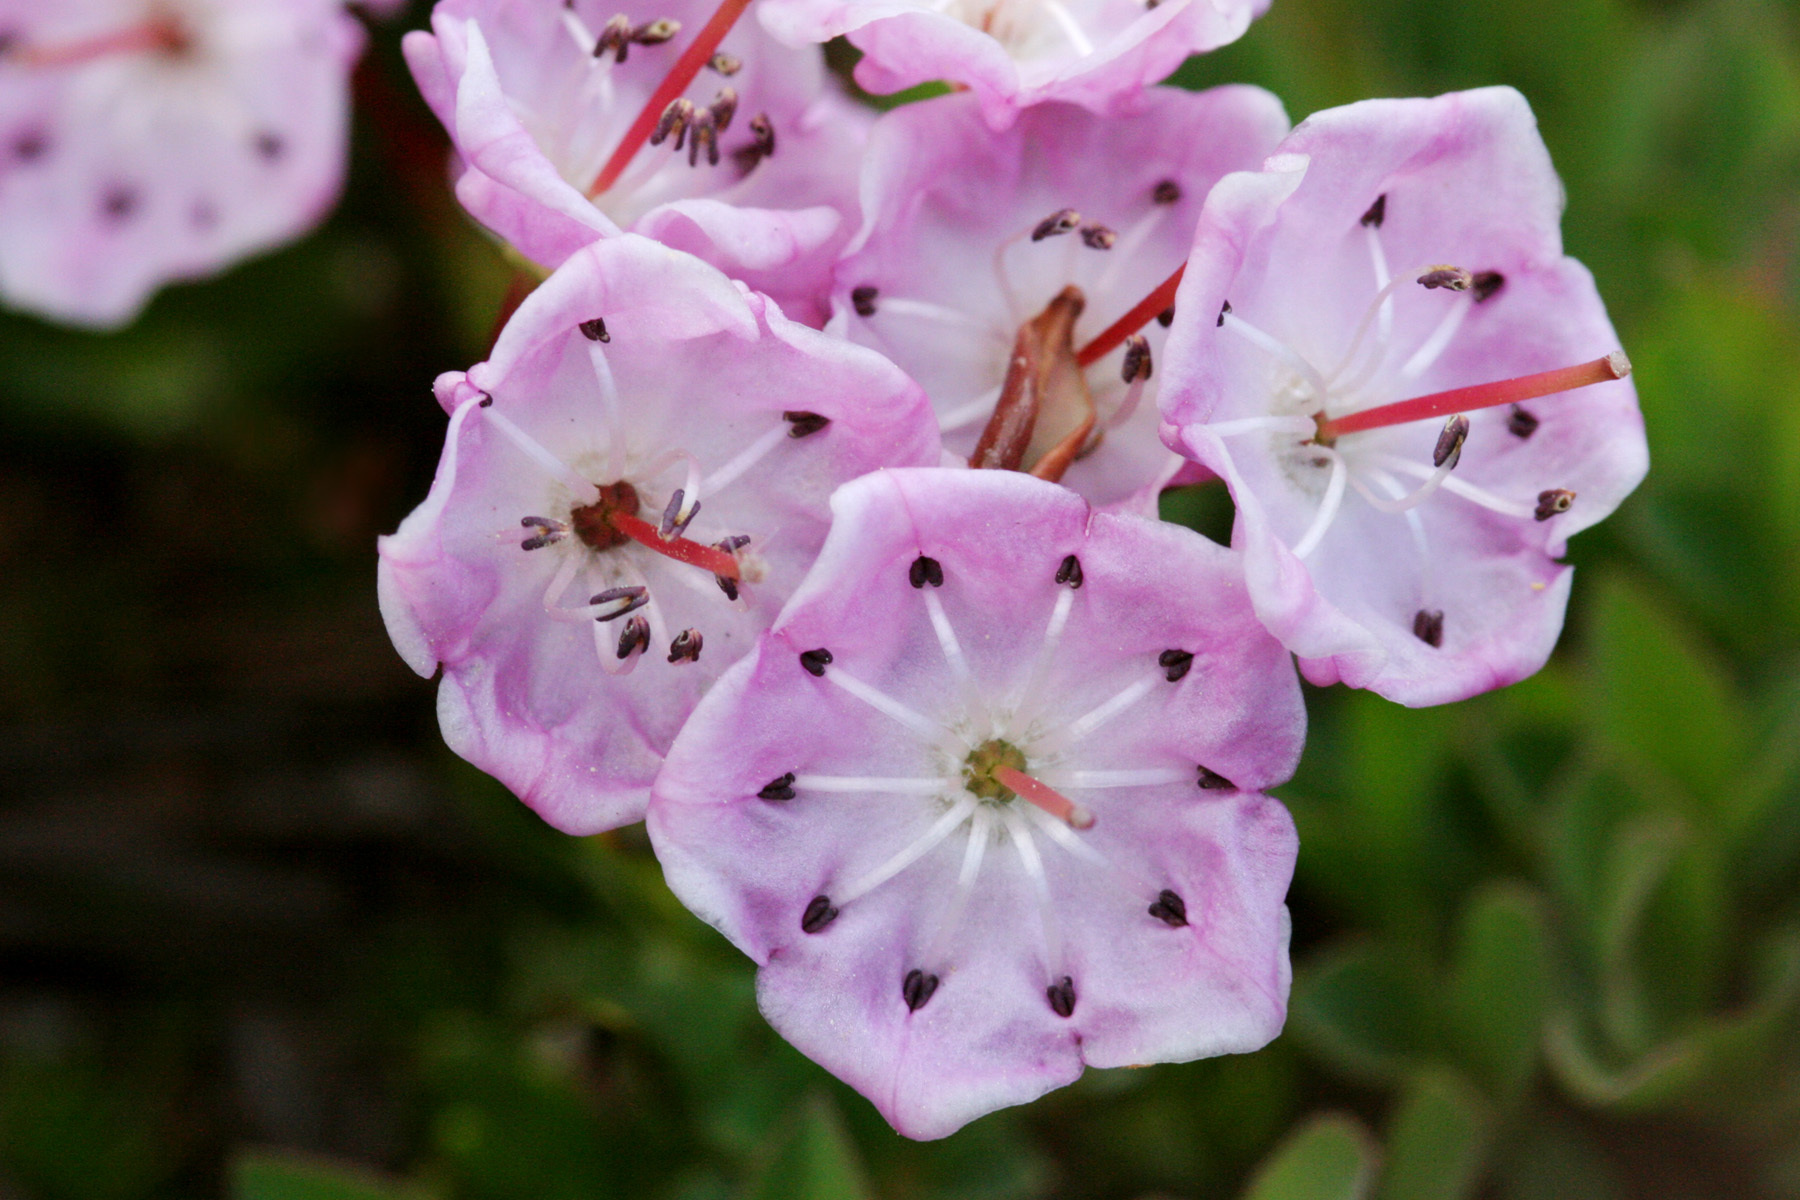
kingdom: Plantae
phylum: Tracheophyta
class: Magnoliopsida
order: Ericales
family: Ericaceae
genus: Kalmia
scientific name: Kalmia microphylla
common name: Alpine bog laurel
